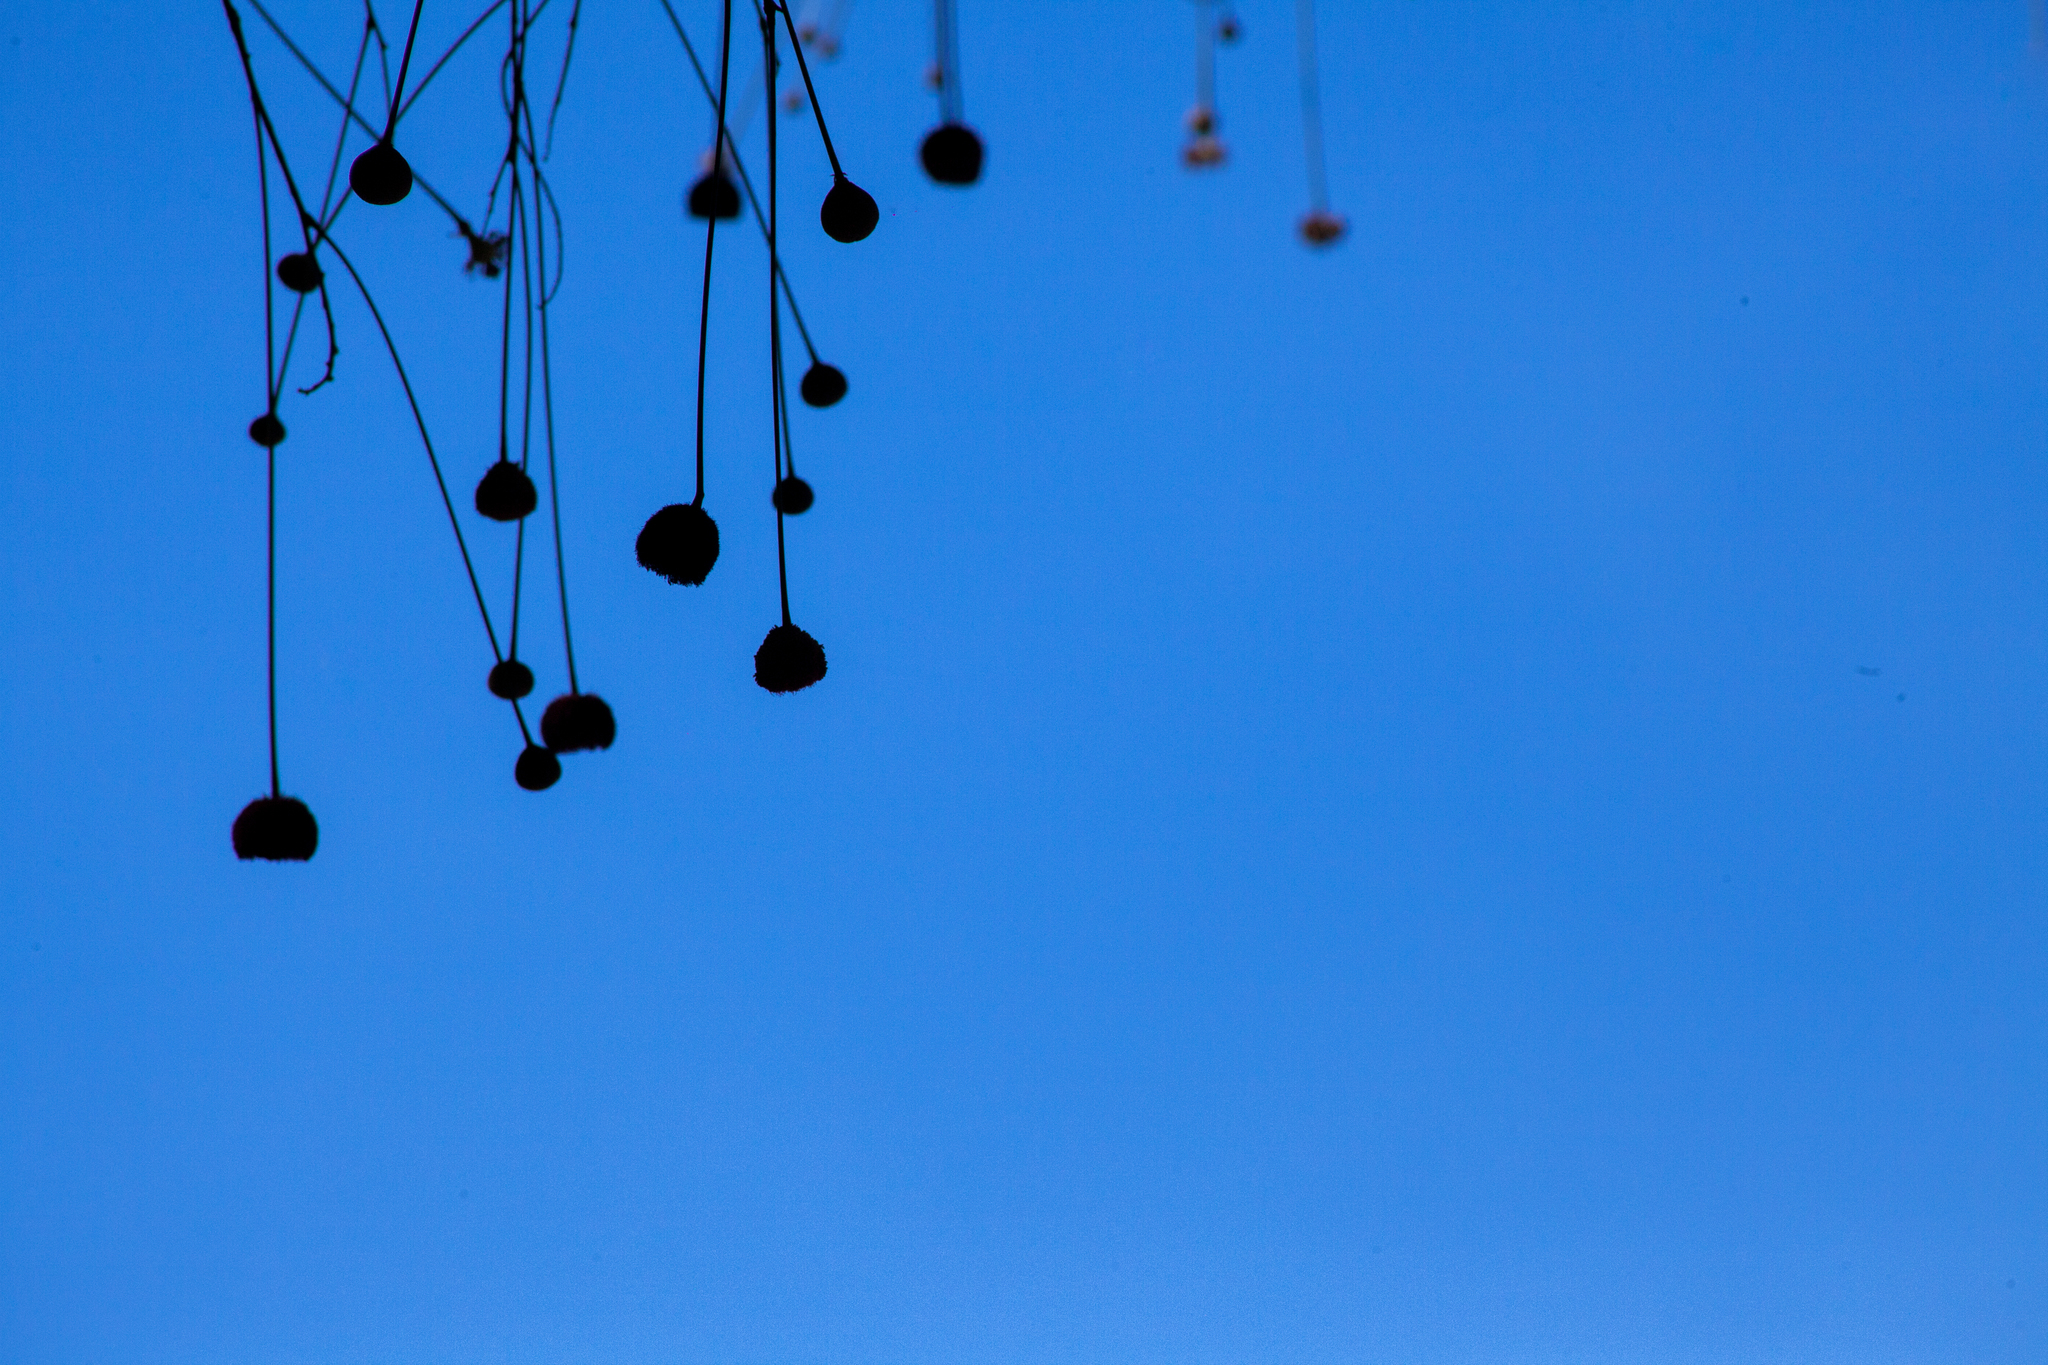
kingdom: Plantae
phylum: Tracheophyta
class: Magnoliopsida
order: Fabales
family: Fabaceae
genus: Parkia
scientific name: Parkia platycephala
